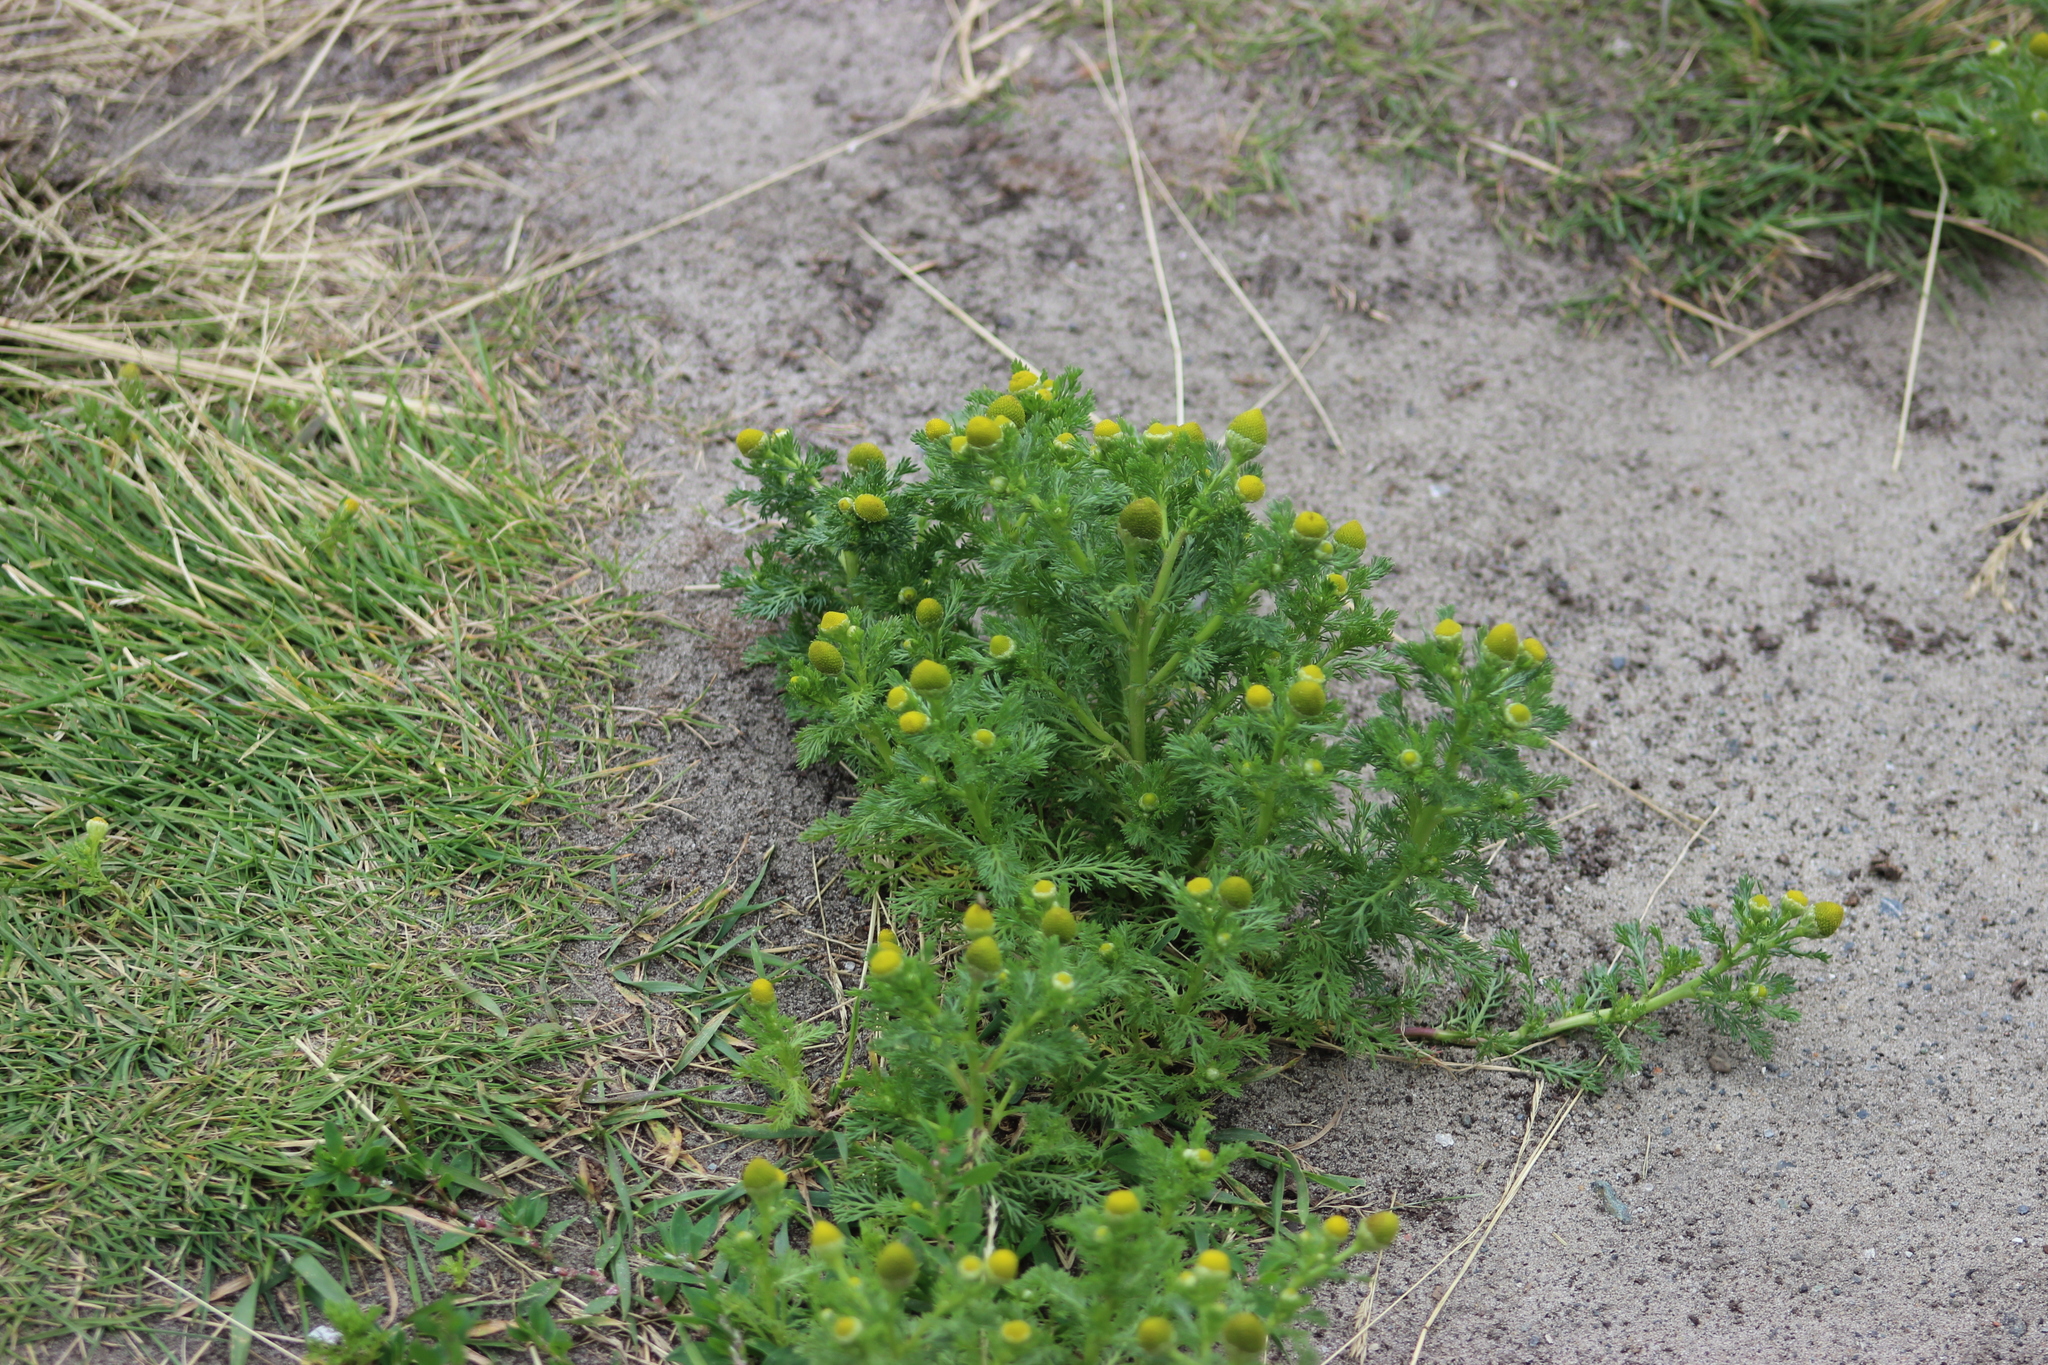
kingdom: Plantae
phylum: Tracheophyta
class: Magnoliopsida
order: Asterales
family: Asteraceae
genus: Matricaria
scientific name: Matricaria discoidea
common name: Disc mayweed
